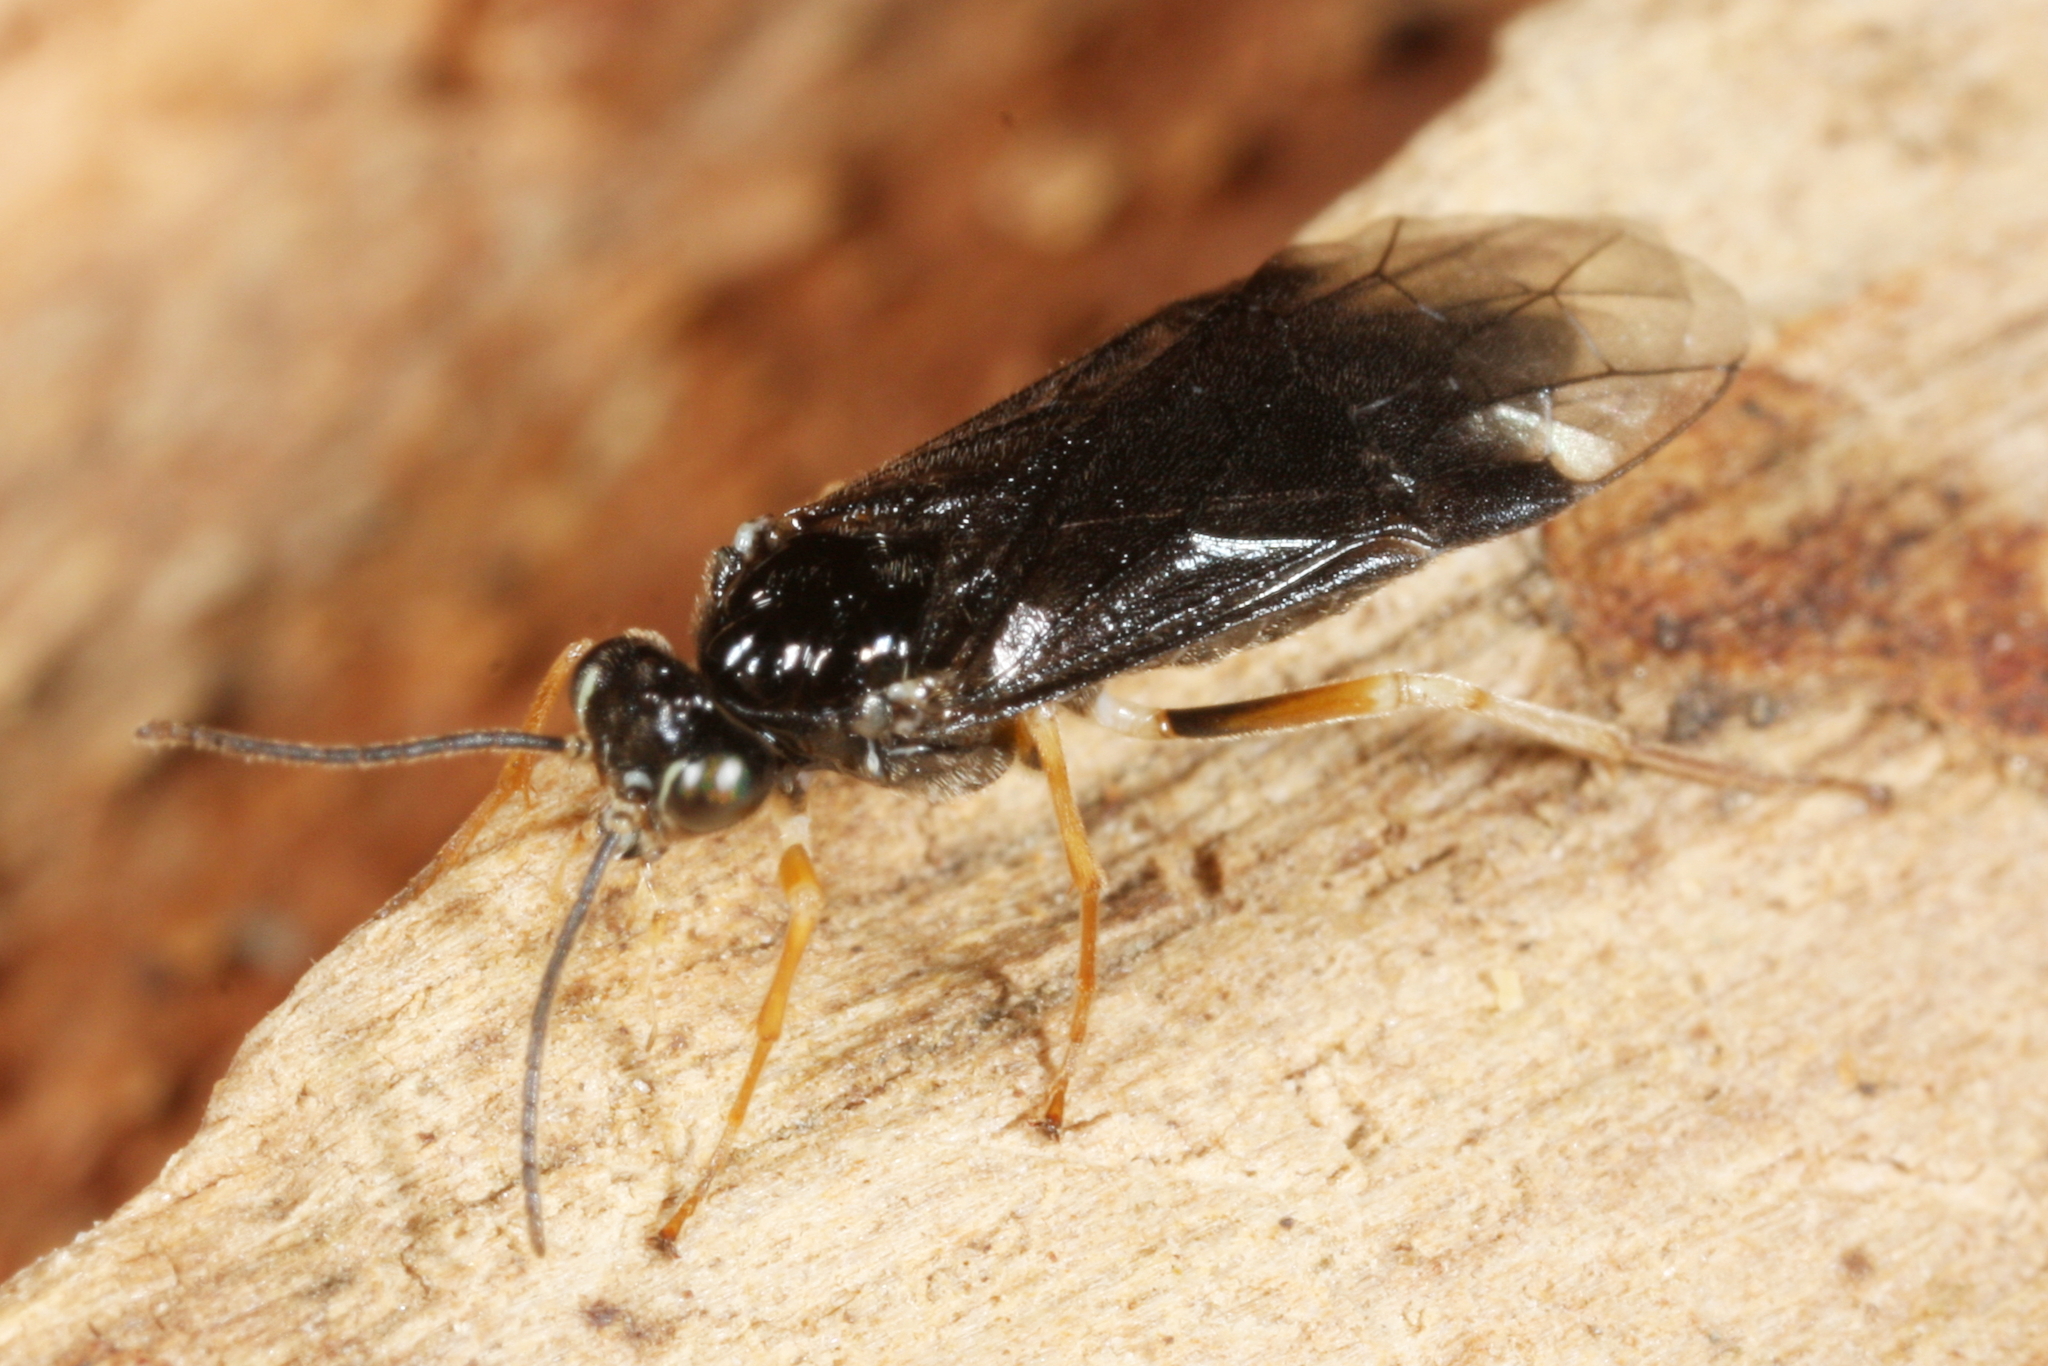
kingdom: Animalia
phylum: Arthropoda
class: Insecta
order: Hymenoptera
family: Tenthredinidae
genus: Heterarthrus
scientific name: Heterarthrus ochropoda
